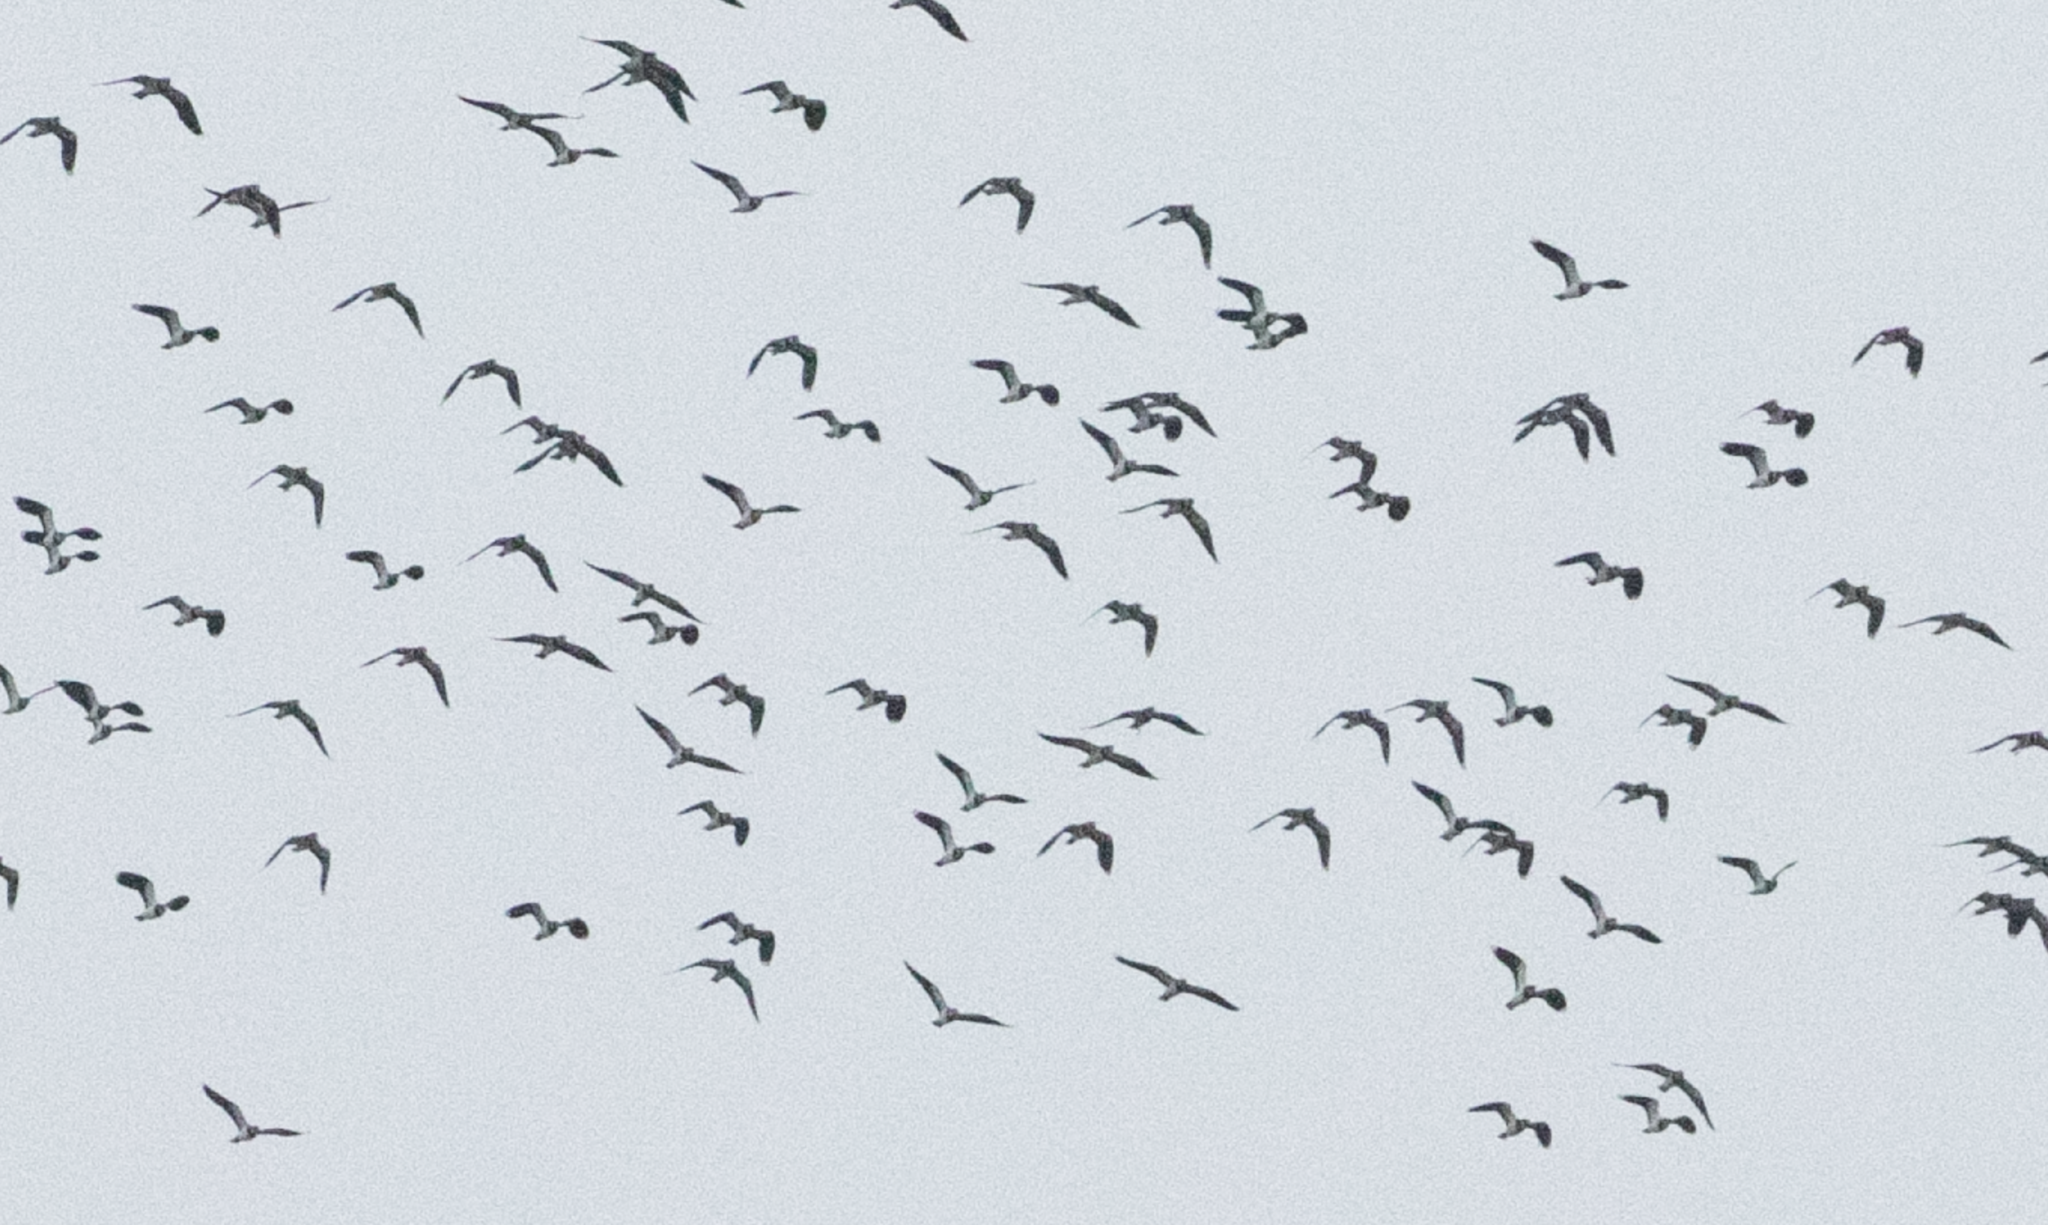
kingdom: Animalia
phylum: Chordata
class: Aves
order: Charadriiformes
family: Charadriidae
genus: Vanellus
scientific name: Vanellus vanellus
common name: Northern lapwing
